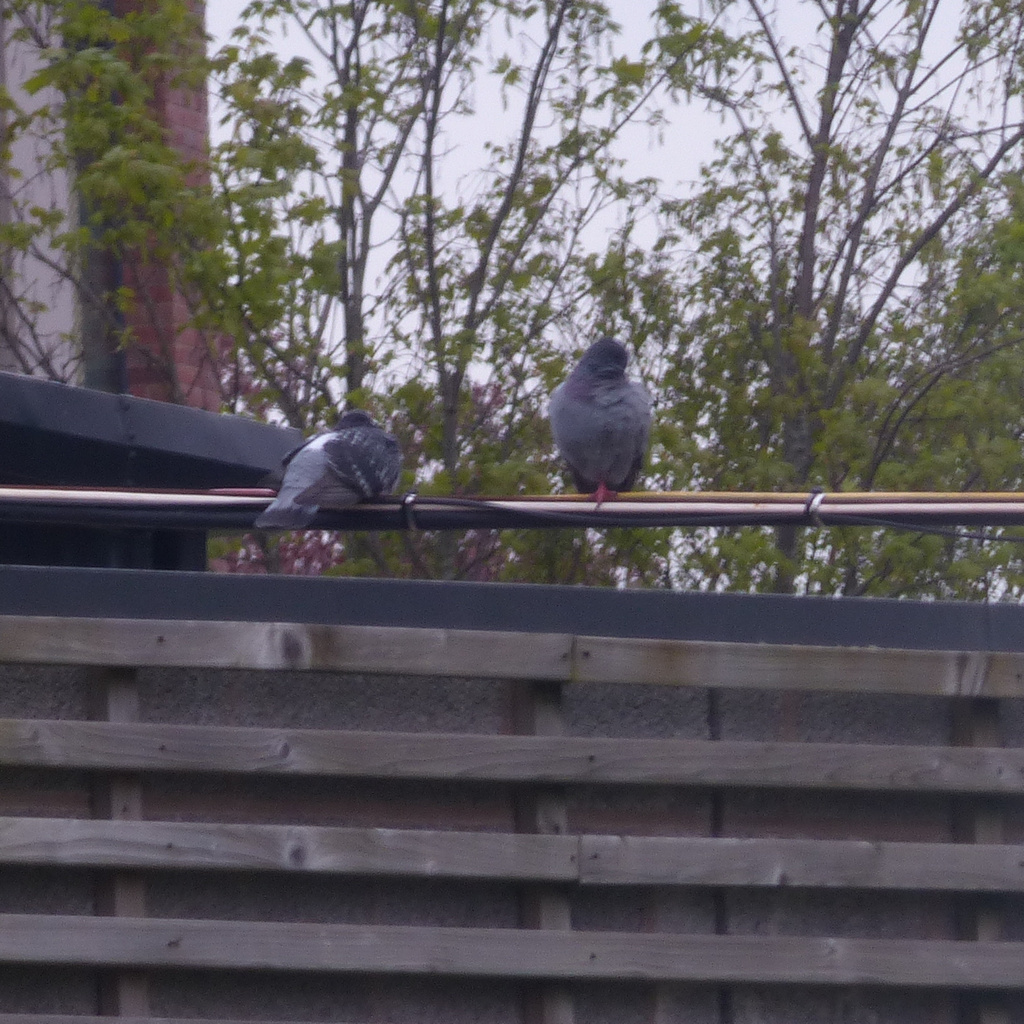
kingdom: Animalia
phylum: Chordata
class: Aves
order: Columbiformes
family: Columbidae
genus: Columba
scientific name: Columba livia
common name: Rock pigeon
